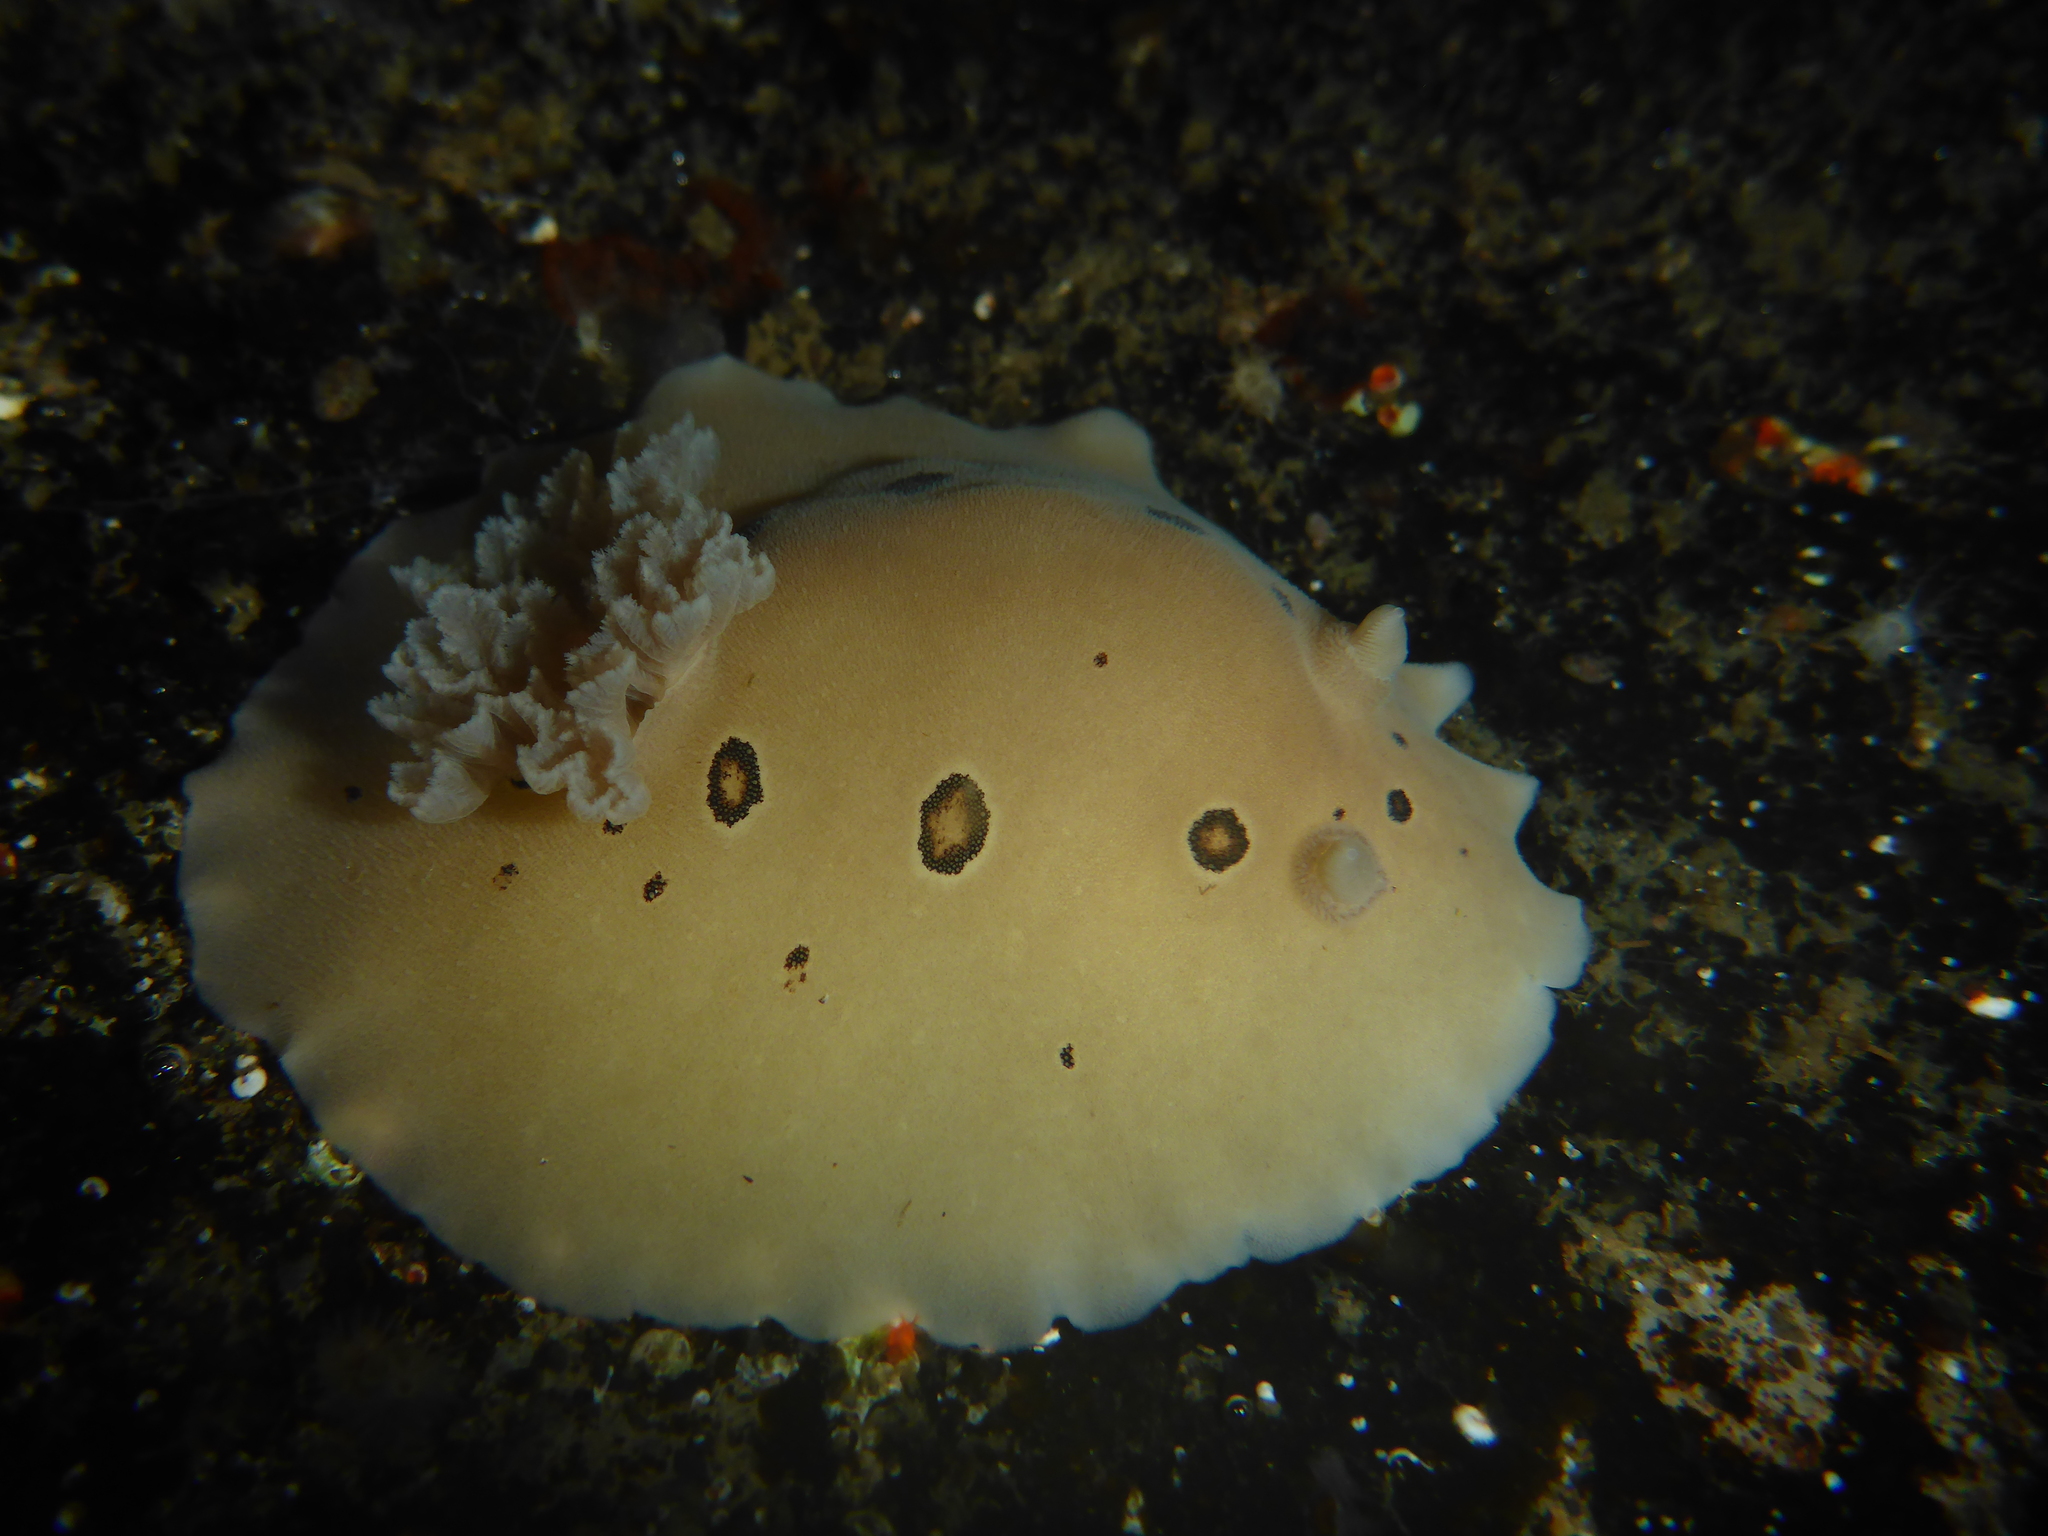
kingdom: Animalia
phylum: Mollusca
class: Gastropoda
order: Nudibranchia
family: Discodorididae
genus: Diaulula
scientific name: Diaulula sandiegensis
